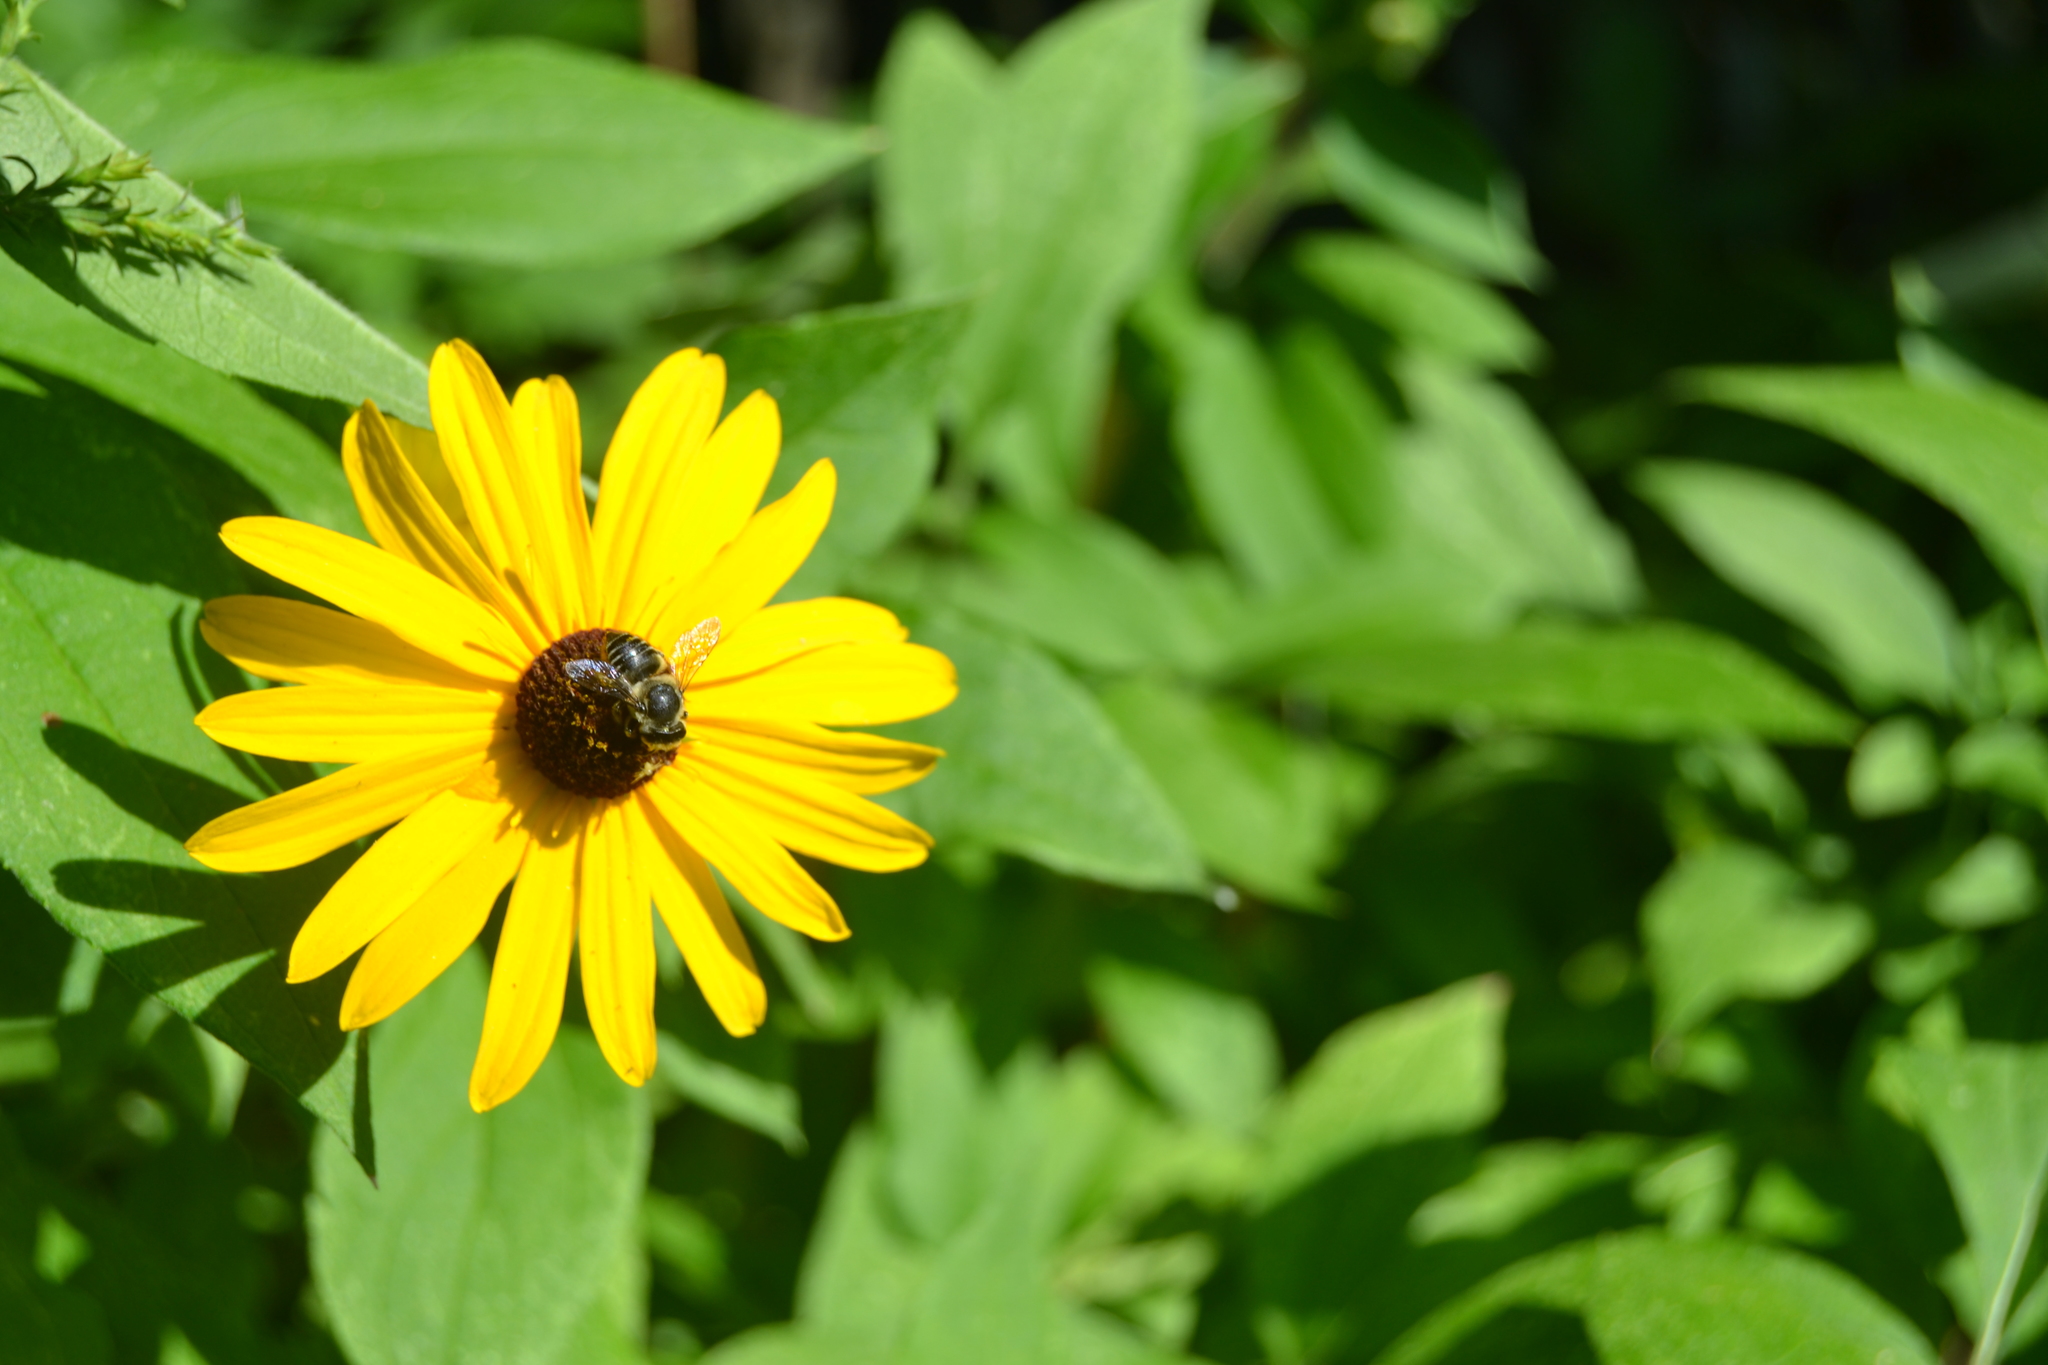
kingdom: Animalia
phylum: Arthropoda
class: Insecta
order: Hymenoptera
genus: Litomegachile
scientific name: Litomegachile
